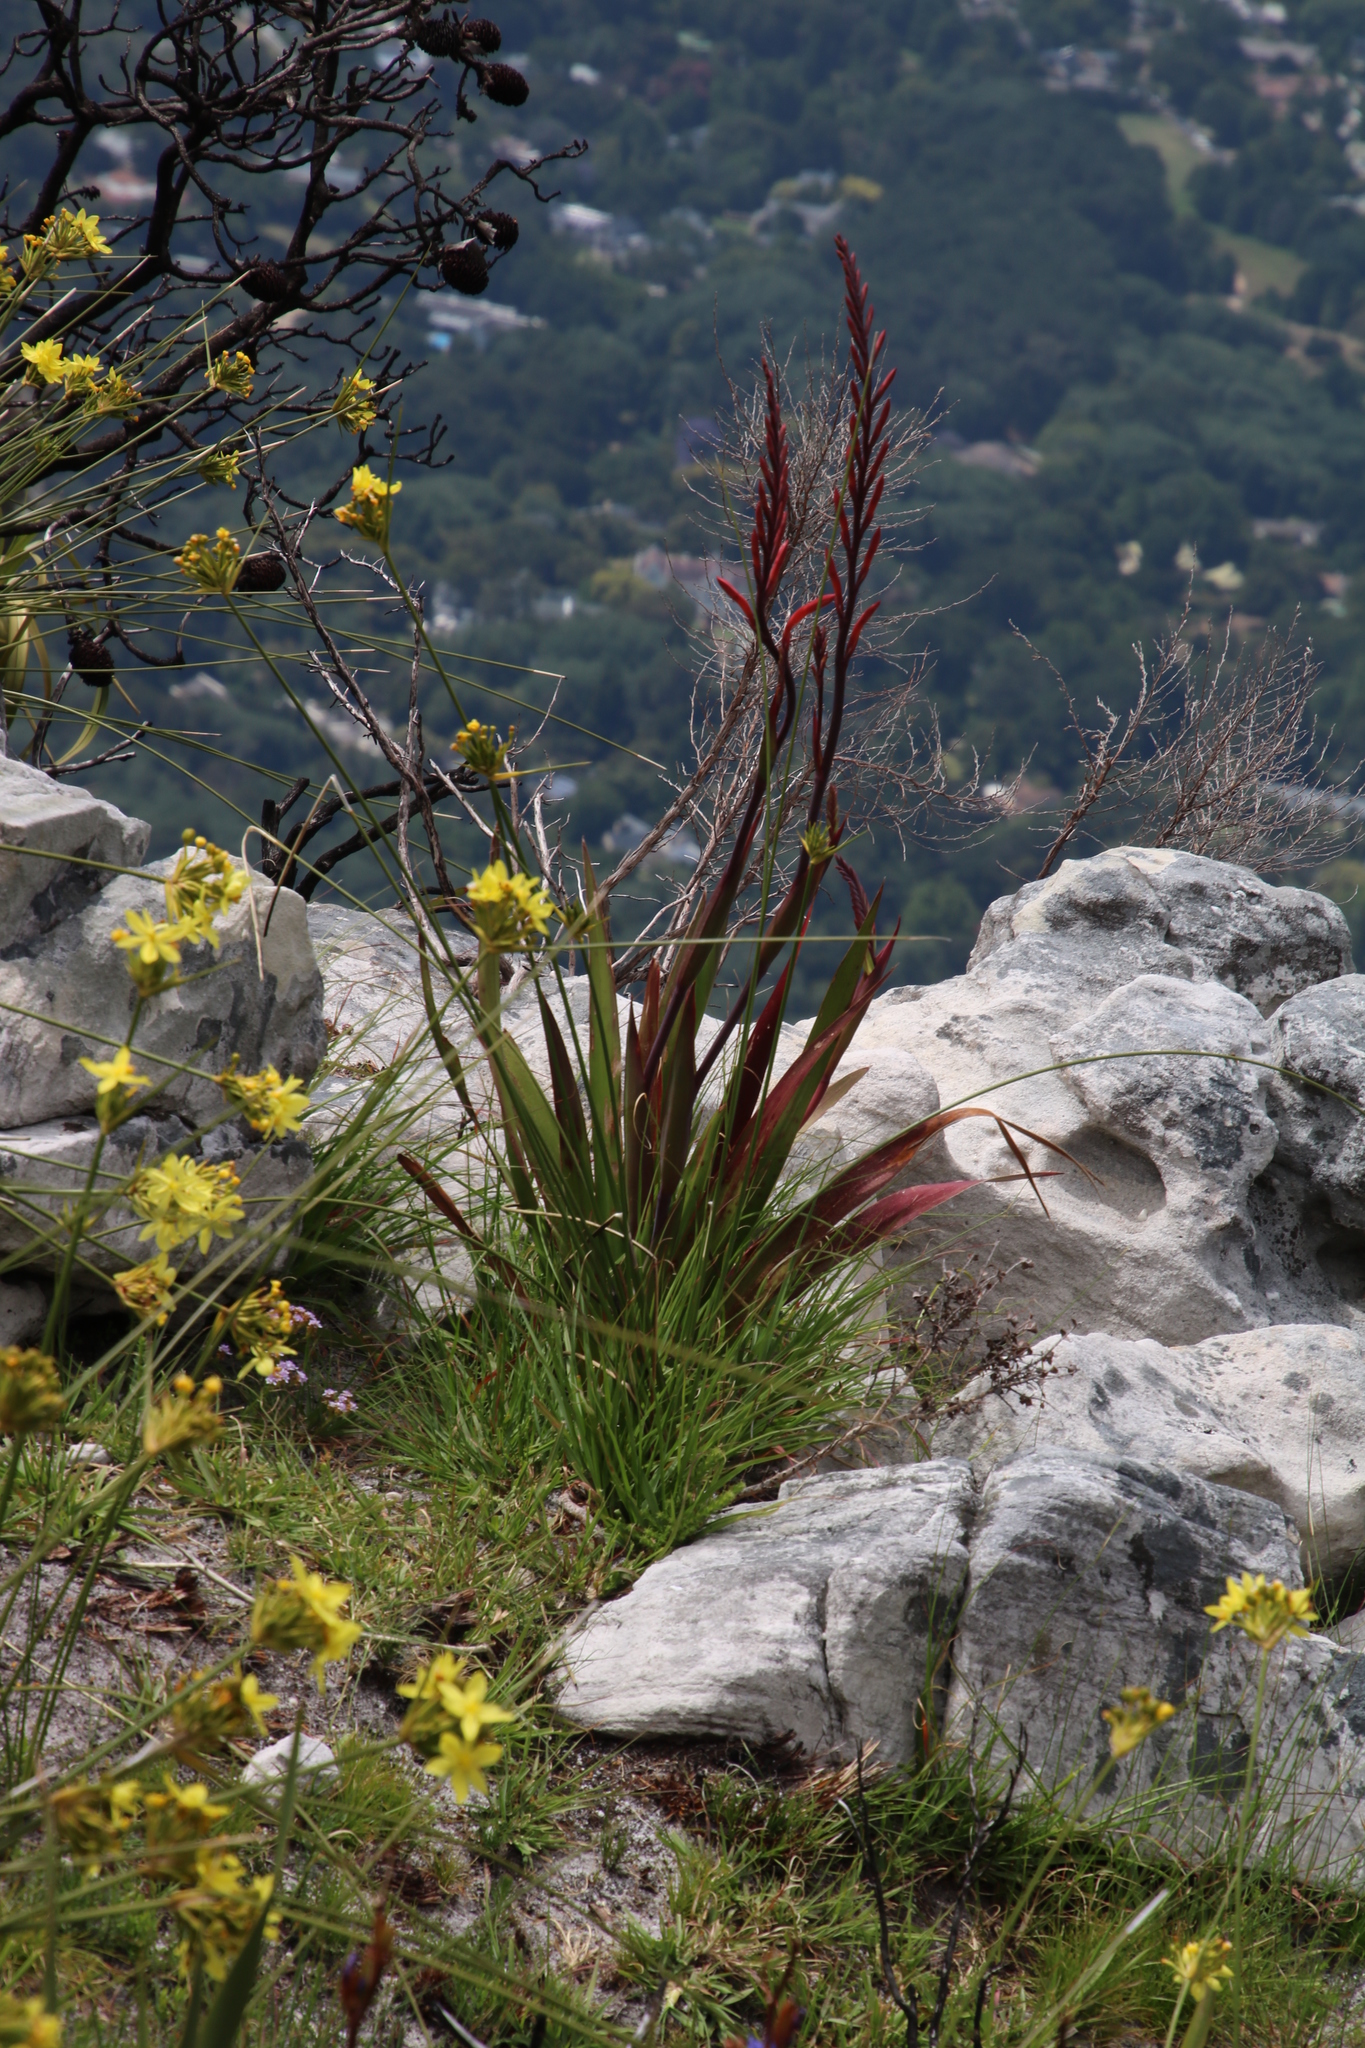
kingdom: Plantae
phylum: Tracheophyta
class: Liliopsida
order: Asparagales
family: Iridaceae
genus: Watsonia
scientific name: Watsonia tabularis
